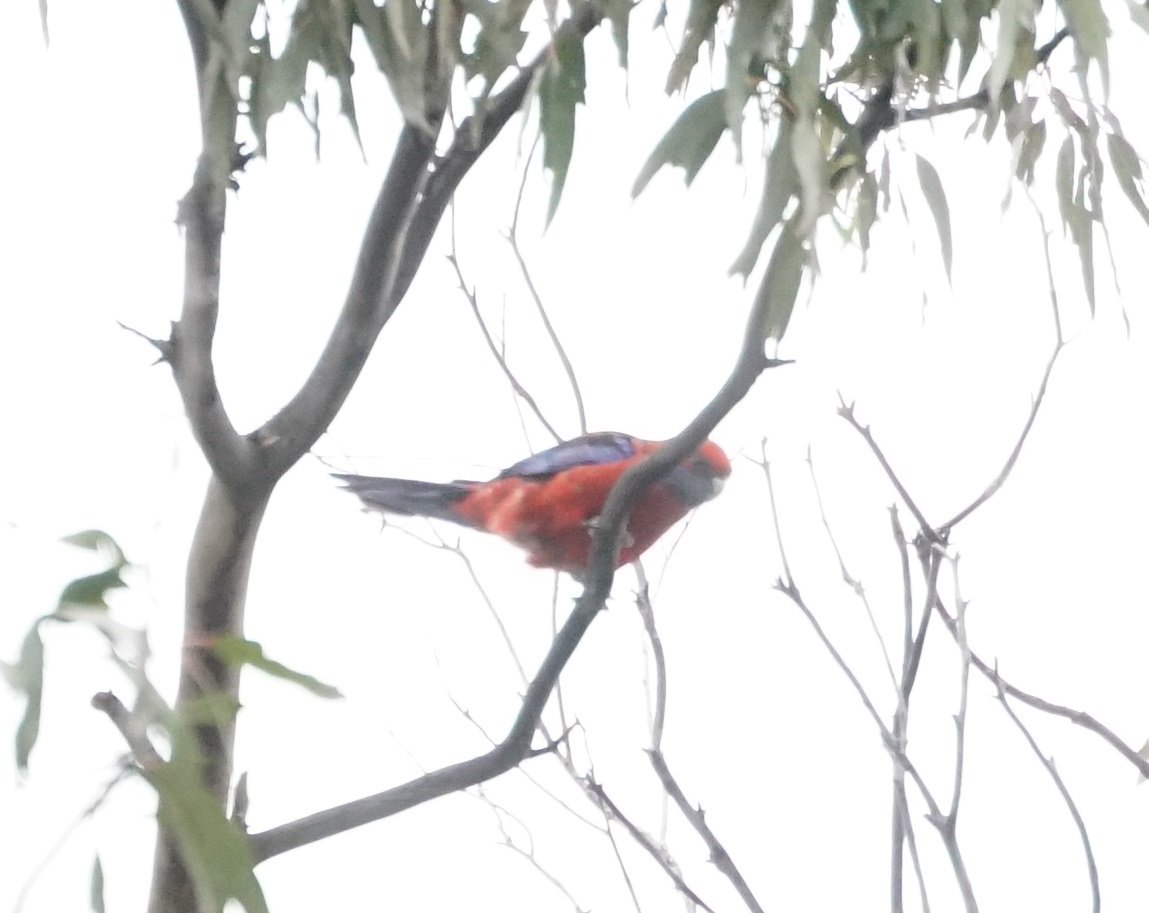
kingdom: Animalia
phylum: Chordata
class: Aves
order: Psittaciformes
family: Psittacidae
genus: Platycercus
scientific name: Platycercus elegans
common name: Crimson rosella
